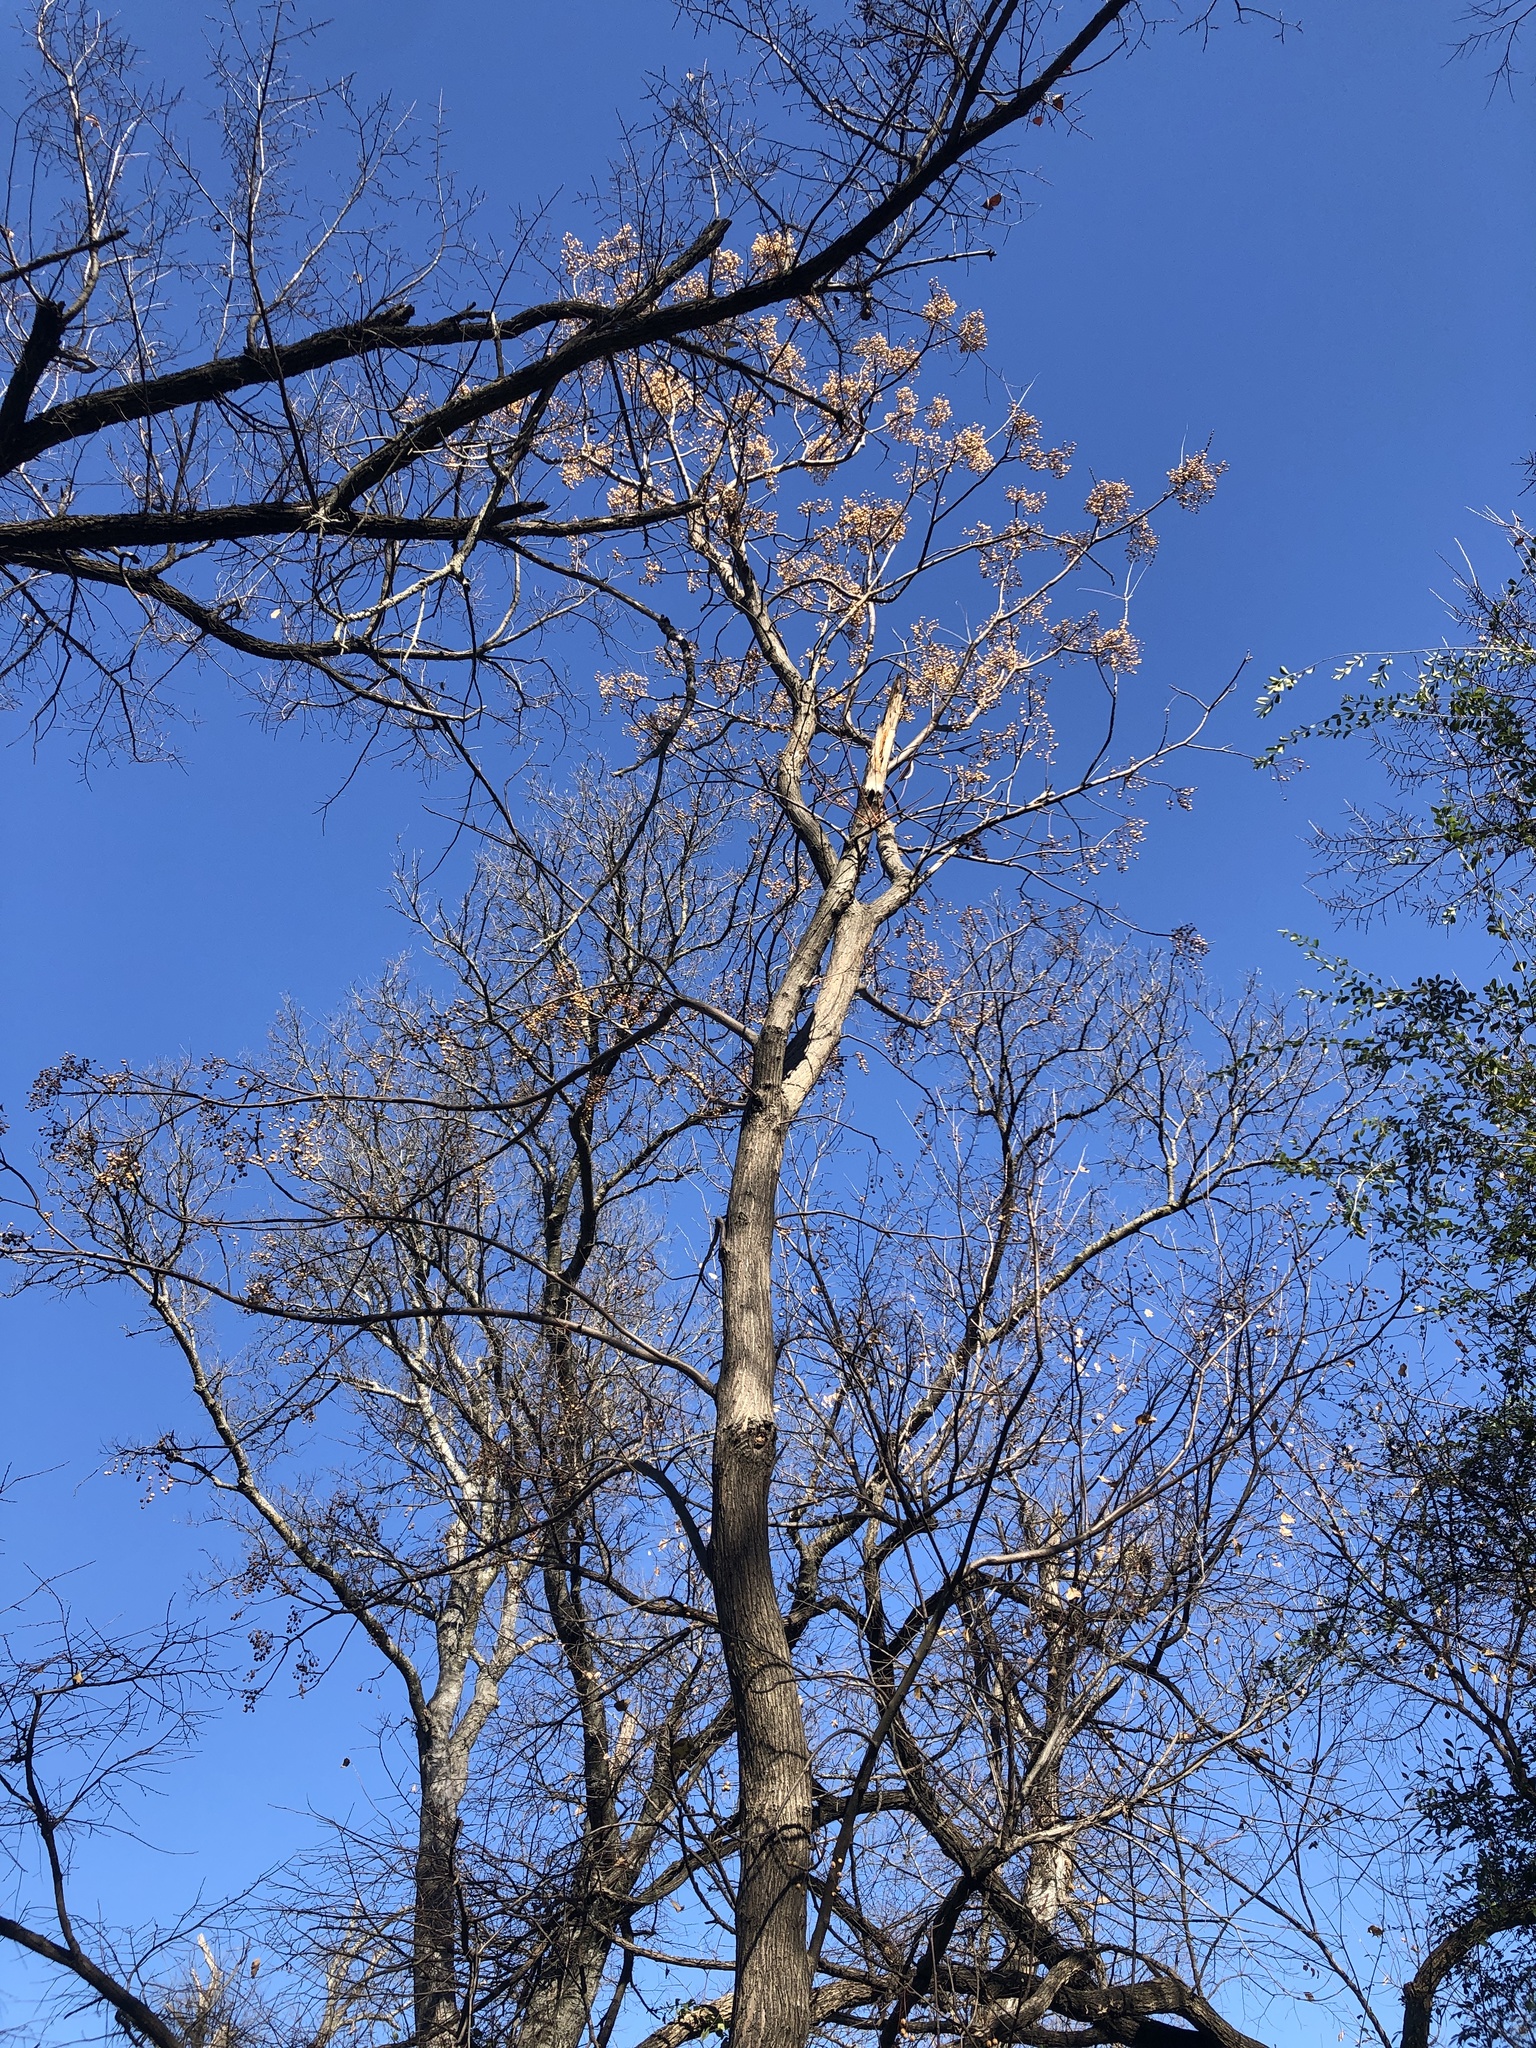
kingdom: Plantae
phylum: Tracheophyta
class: Magnoliopsida
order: Sapindales
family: Meliaceae
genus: Melia
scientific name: Melia azedarach
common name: Chinaberrytree
